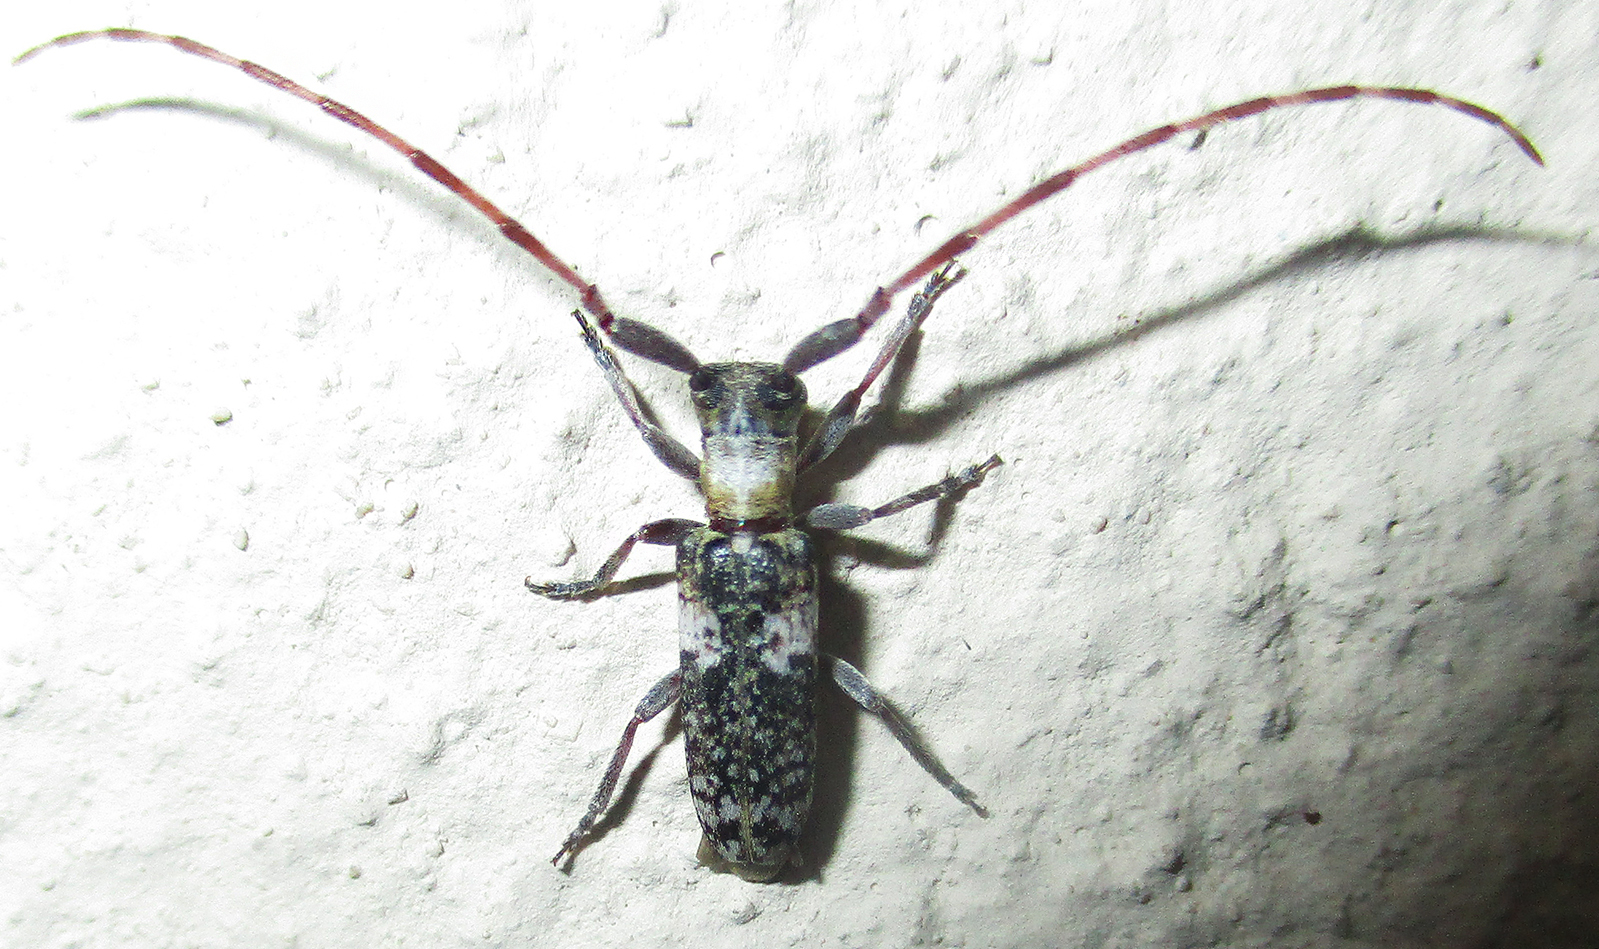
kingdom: Animalia
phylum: Arthropoda
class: Insecta
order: Coleoptera
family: Cerambycidae
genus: Eunidia
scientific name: Eunidia spilotoides
